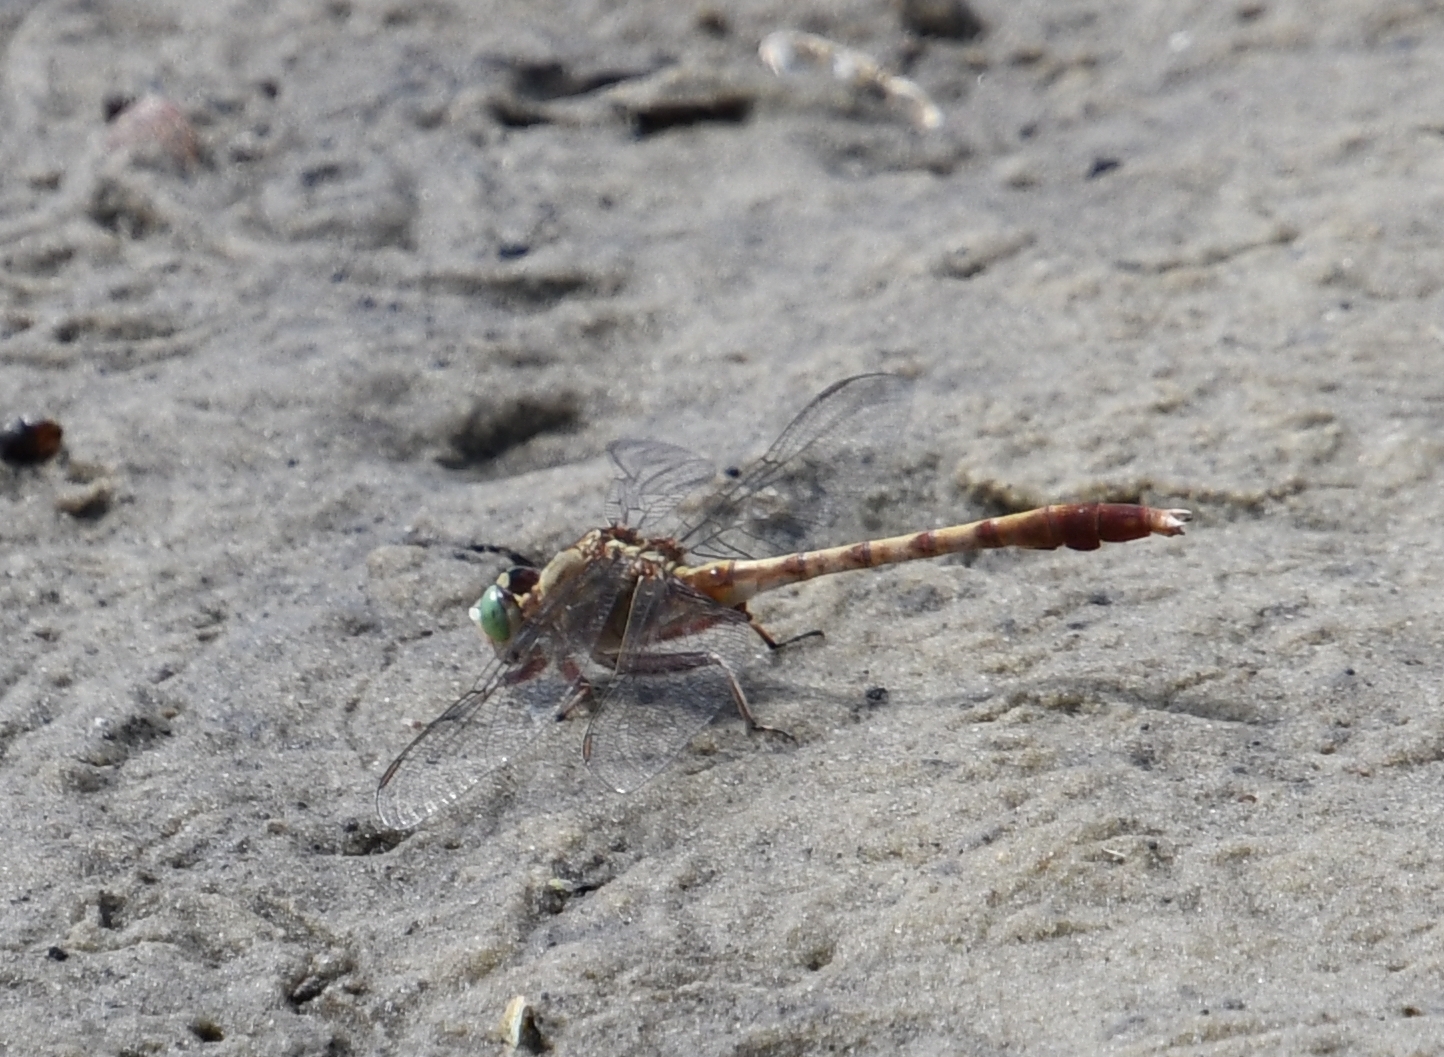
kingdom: Animalia
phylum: Arthropoda
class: Insecta
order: Odonata
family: Gomphidae
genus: Arigomphus
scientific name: Arigomphus pallidus
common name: Gray-green clubtail
